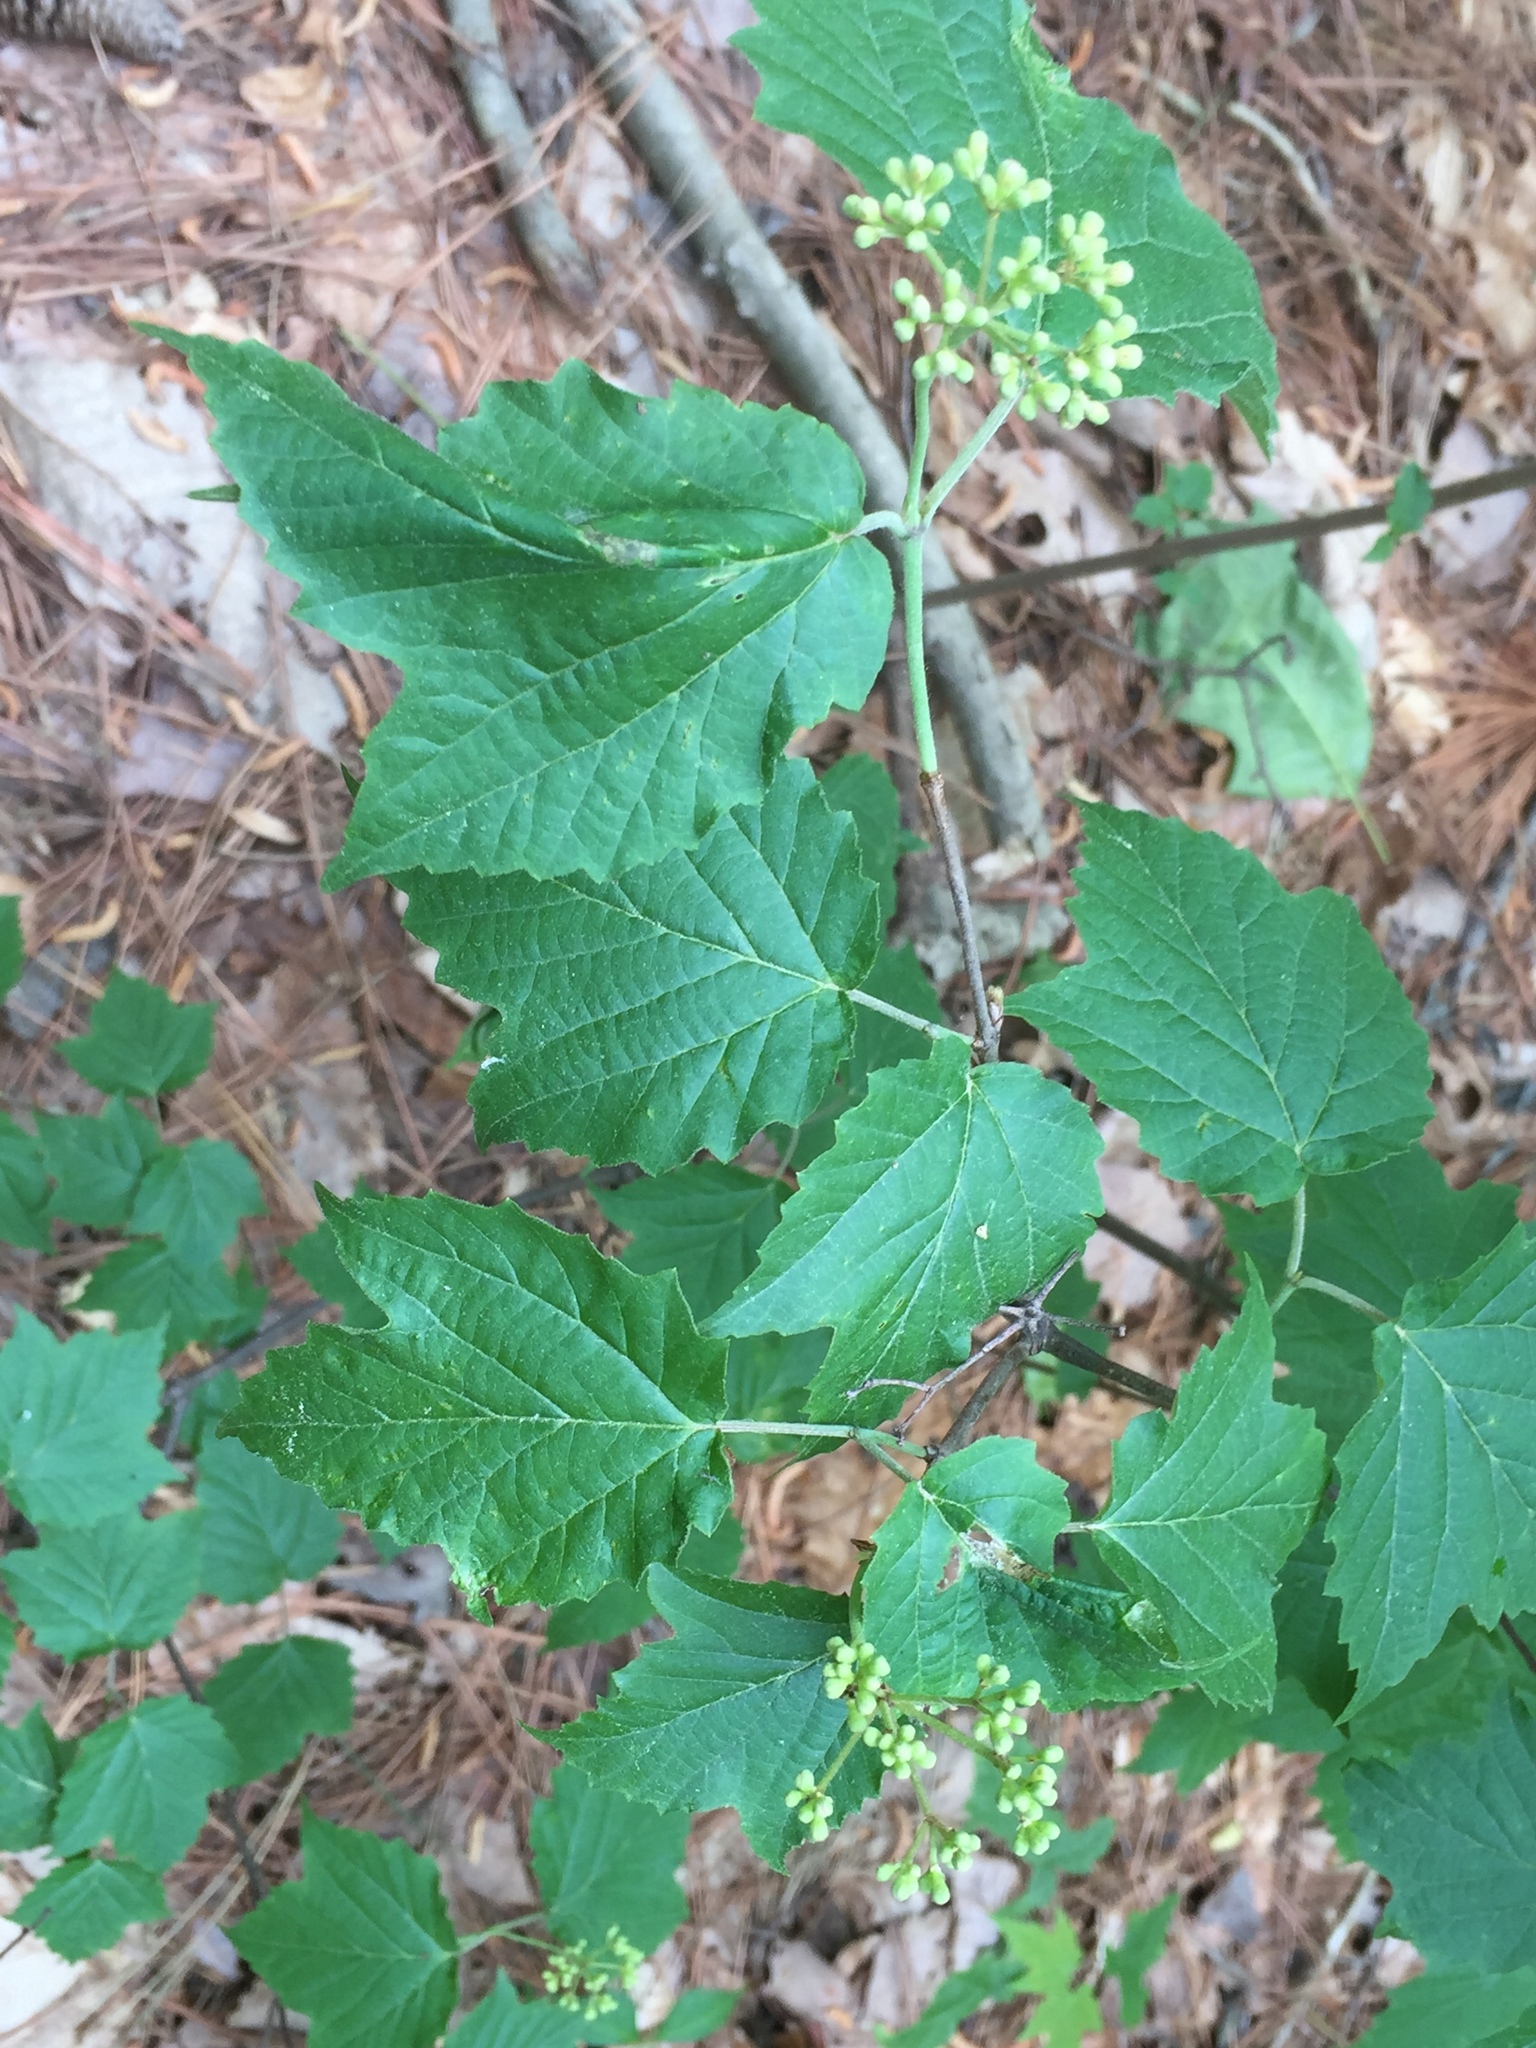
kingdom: Plantae
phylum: Tracheophyta
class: Magnoliopsida
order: Dipsacales
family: Viburnaceae
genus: Viburnum
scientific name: Viburnum acerifolium
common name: Dockmackie
